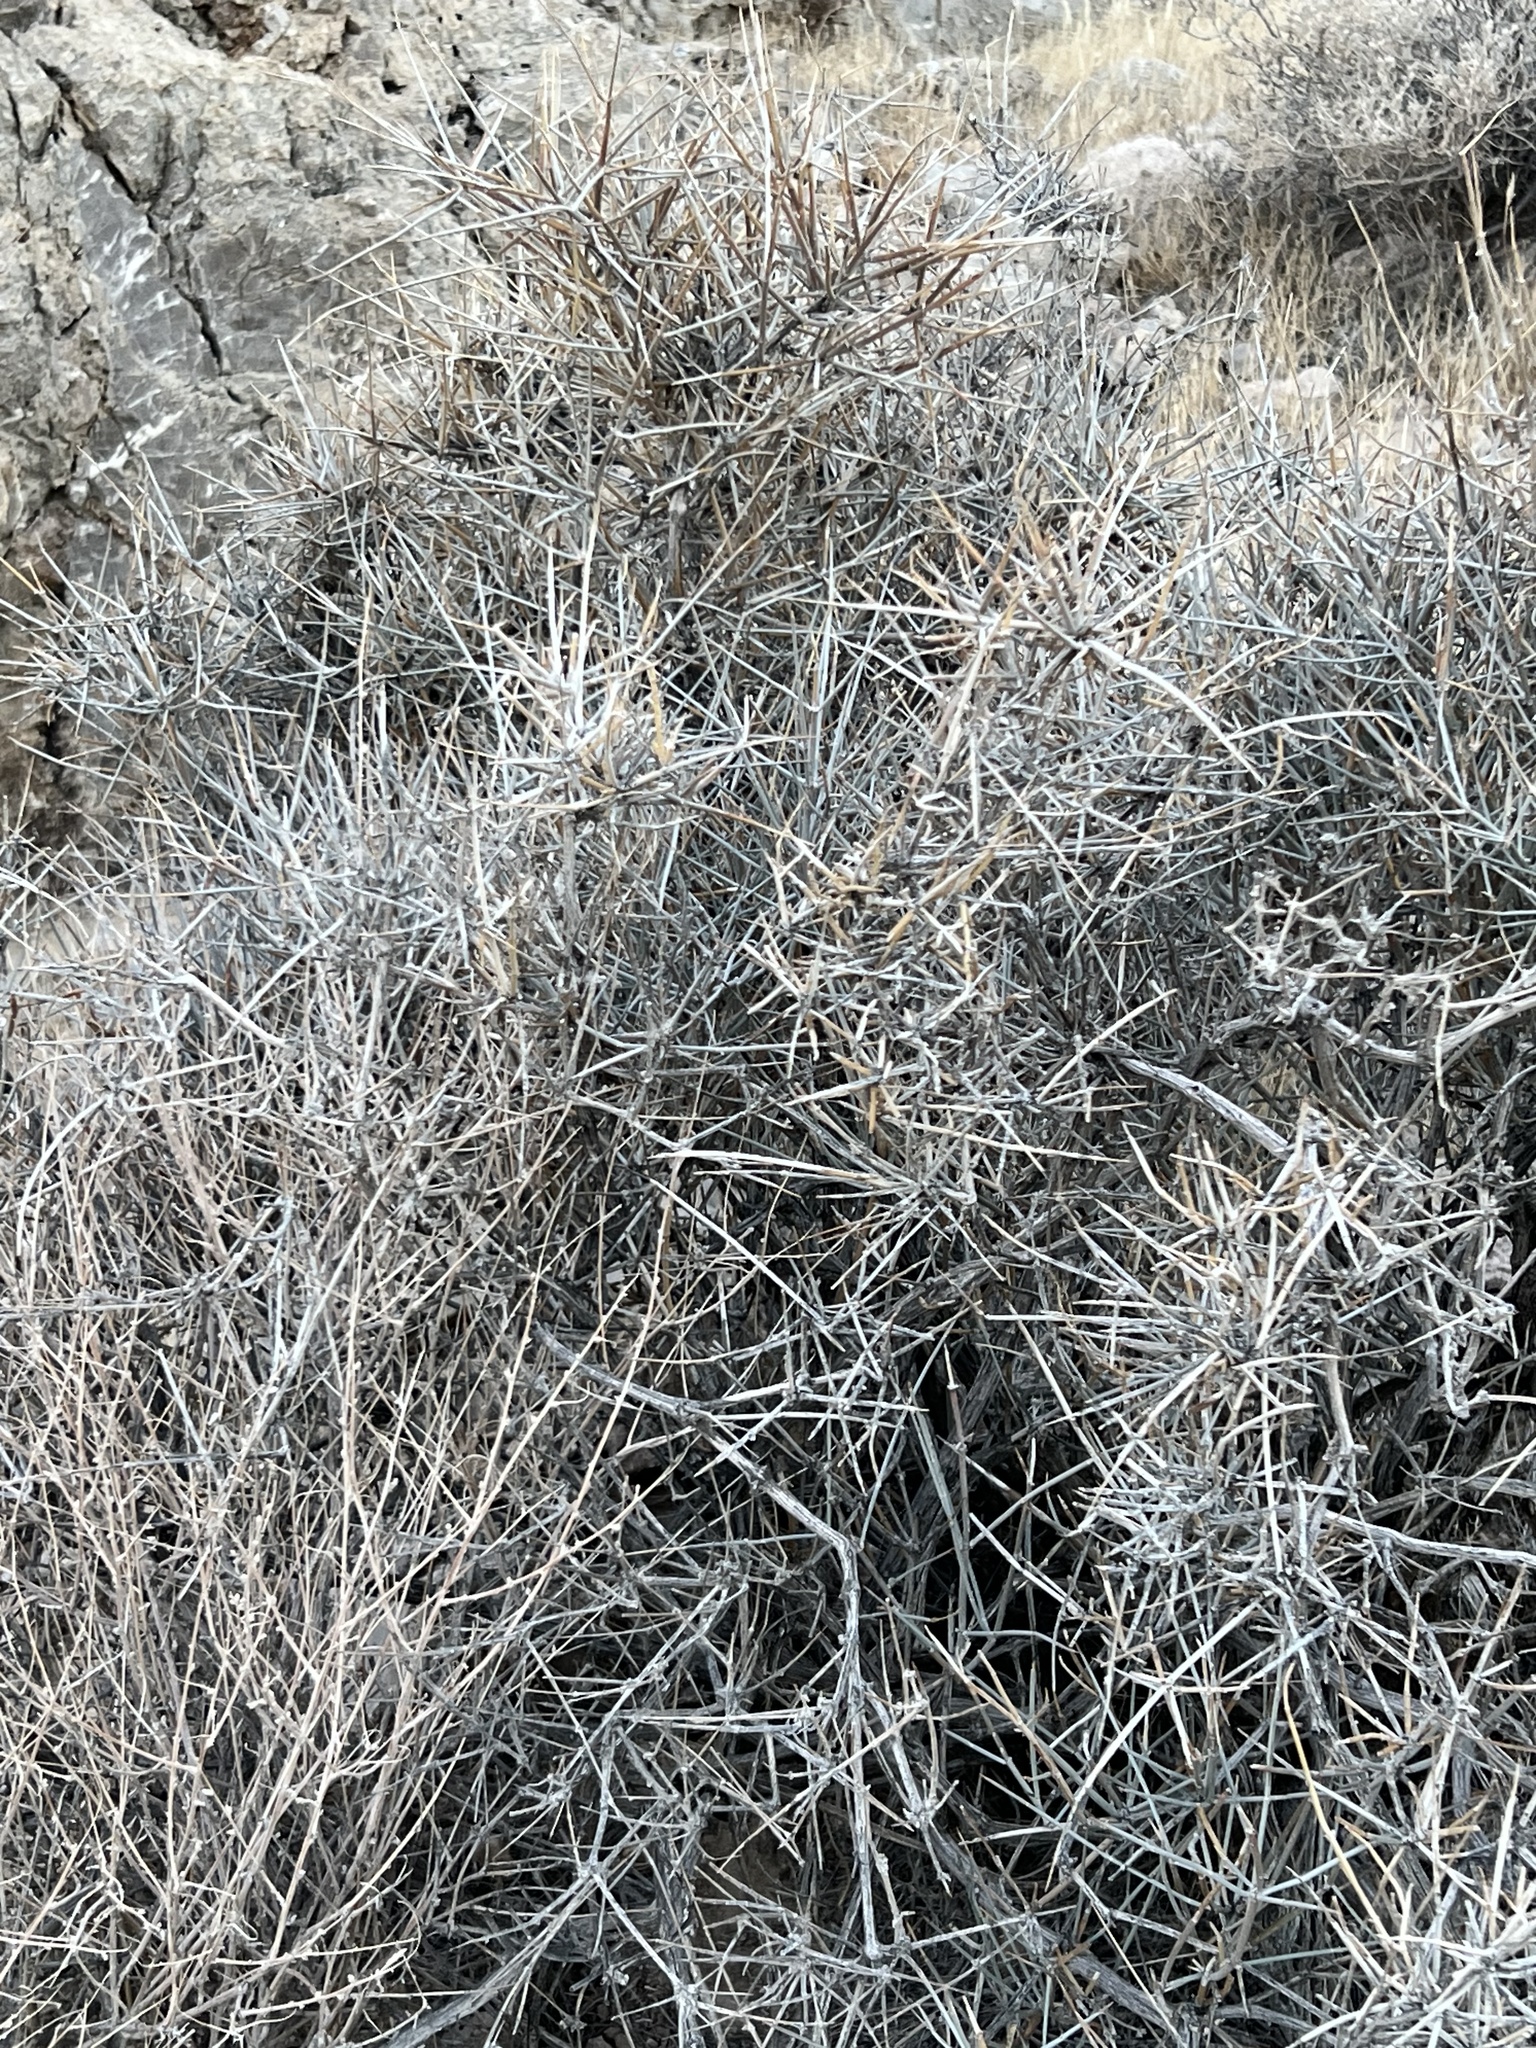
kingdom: Plantae
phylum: Tracheophyta
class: Gnetopsida
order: Ephedrales
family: Ephedraceae
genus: Ephedra
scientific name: Ephedra nevadensis
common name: Gray ephedra
